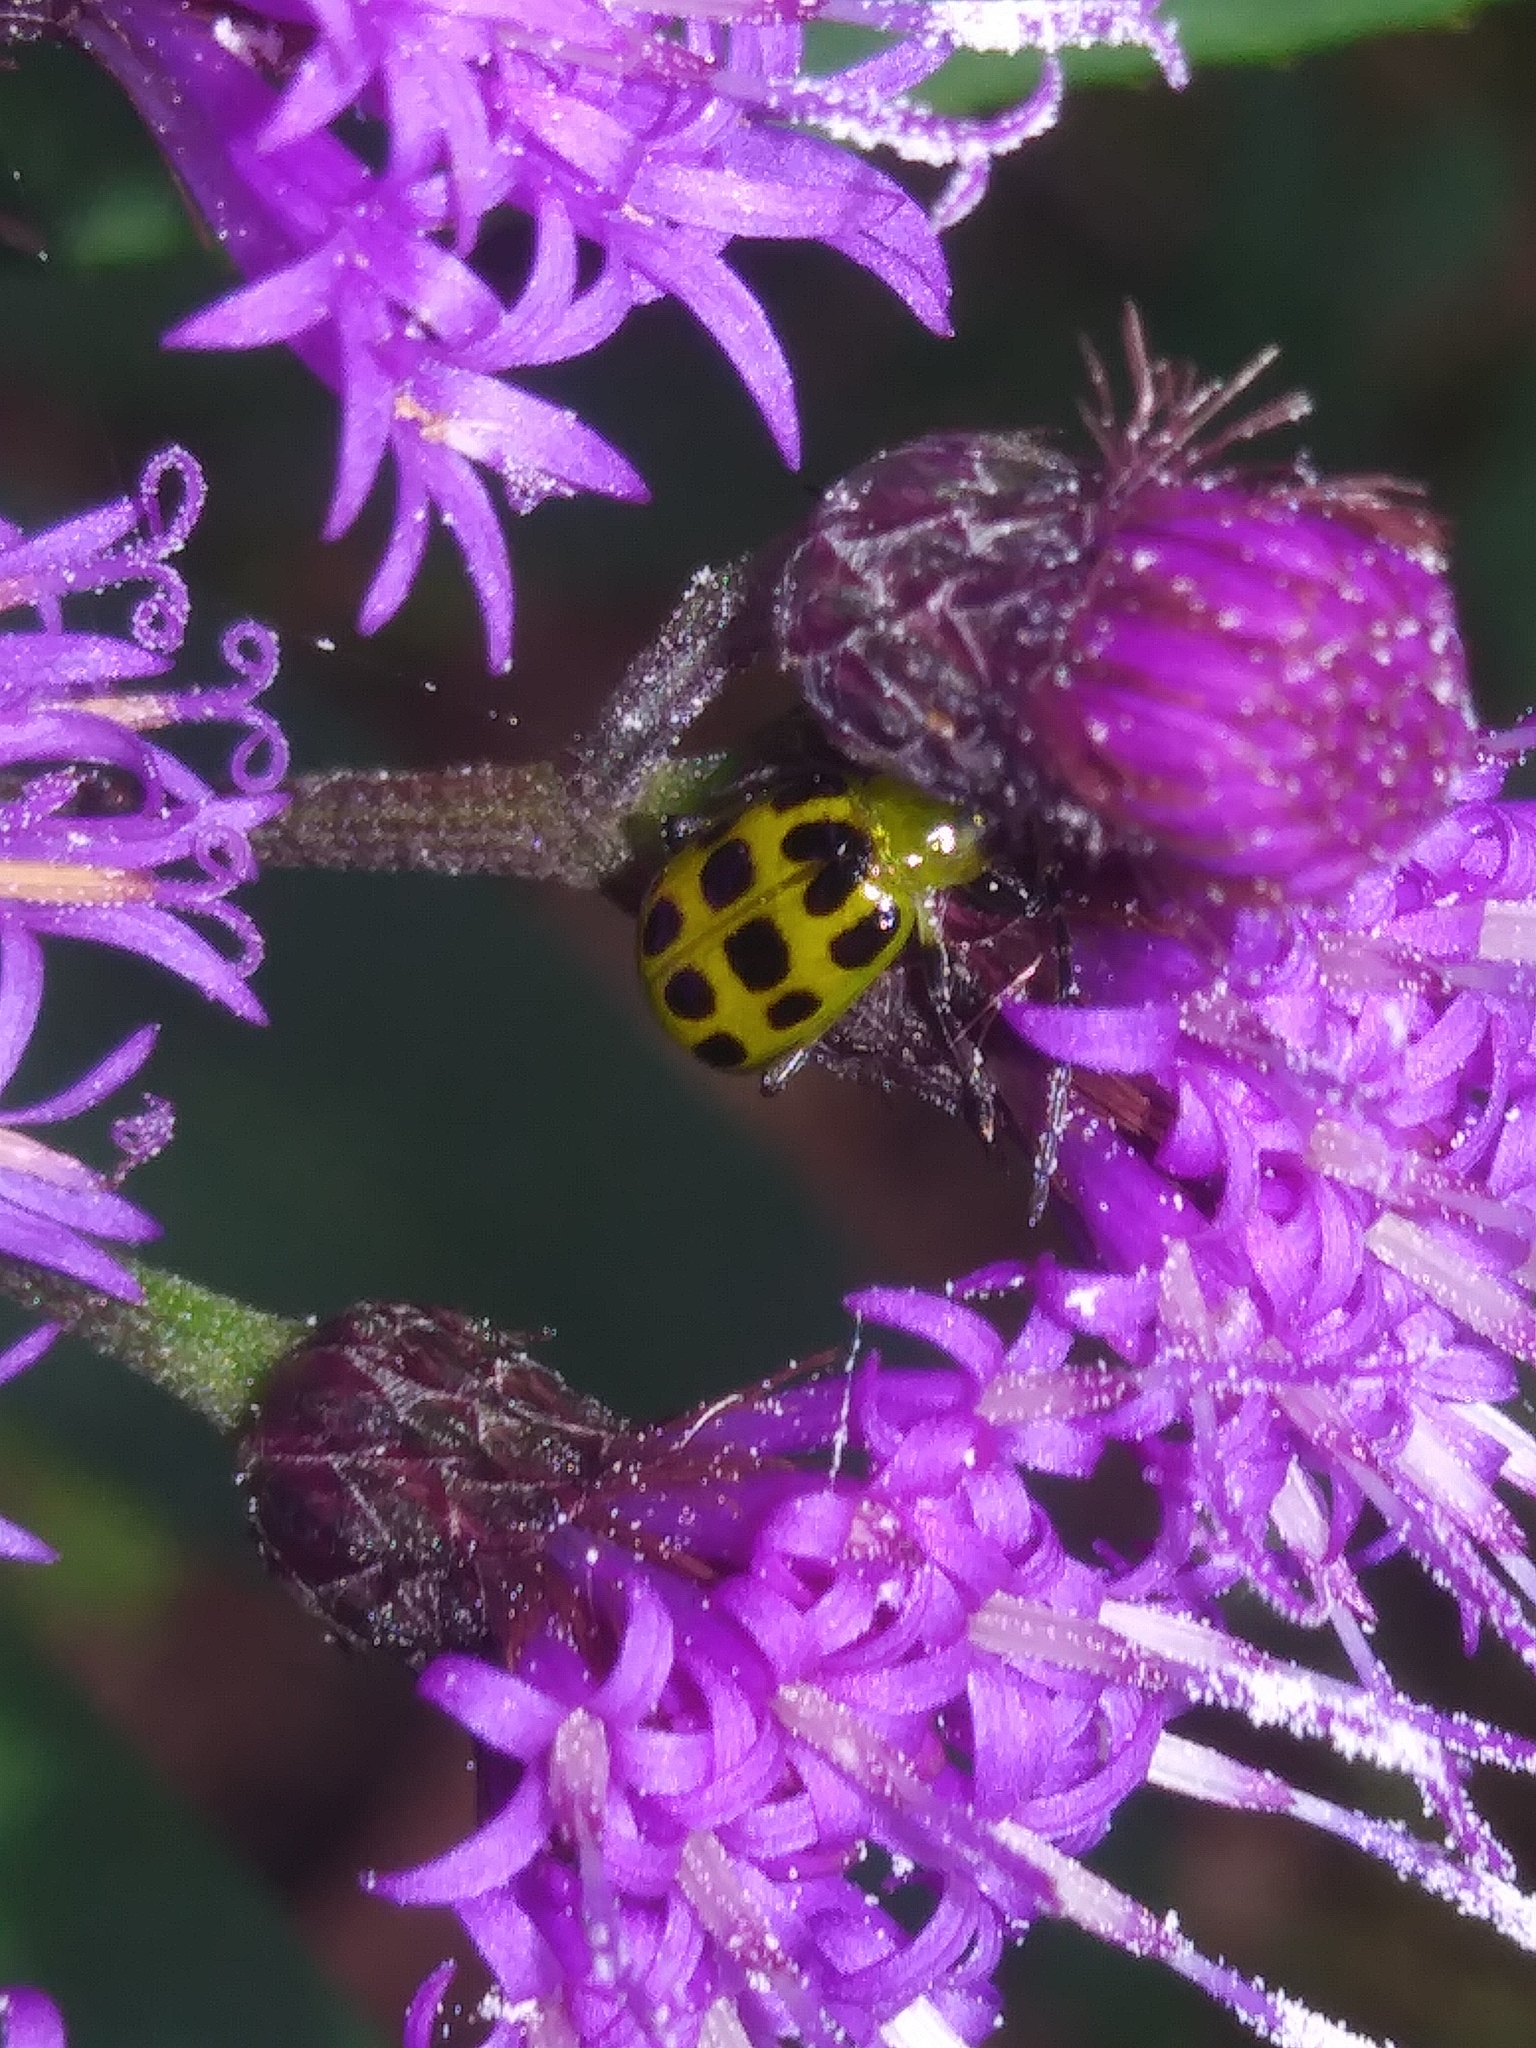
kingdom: Animalia
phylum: Arthropoda
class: Insecta
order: Coleoptera
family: Chrysomelidae
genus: Diabrotica
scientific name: Diabrotica undecimpunctata
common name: Spotted cucumber beetle
